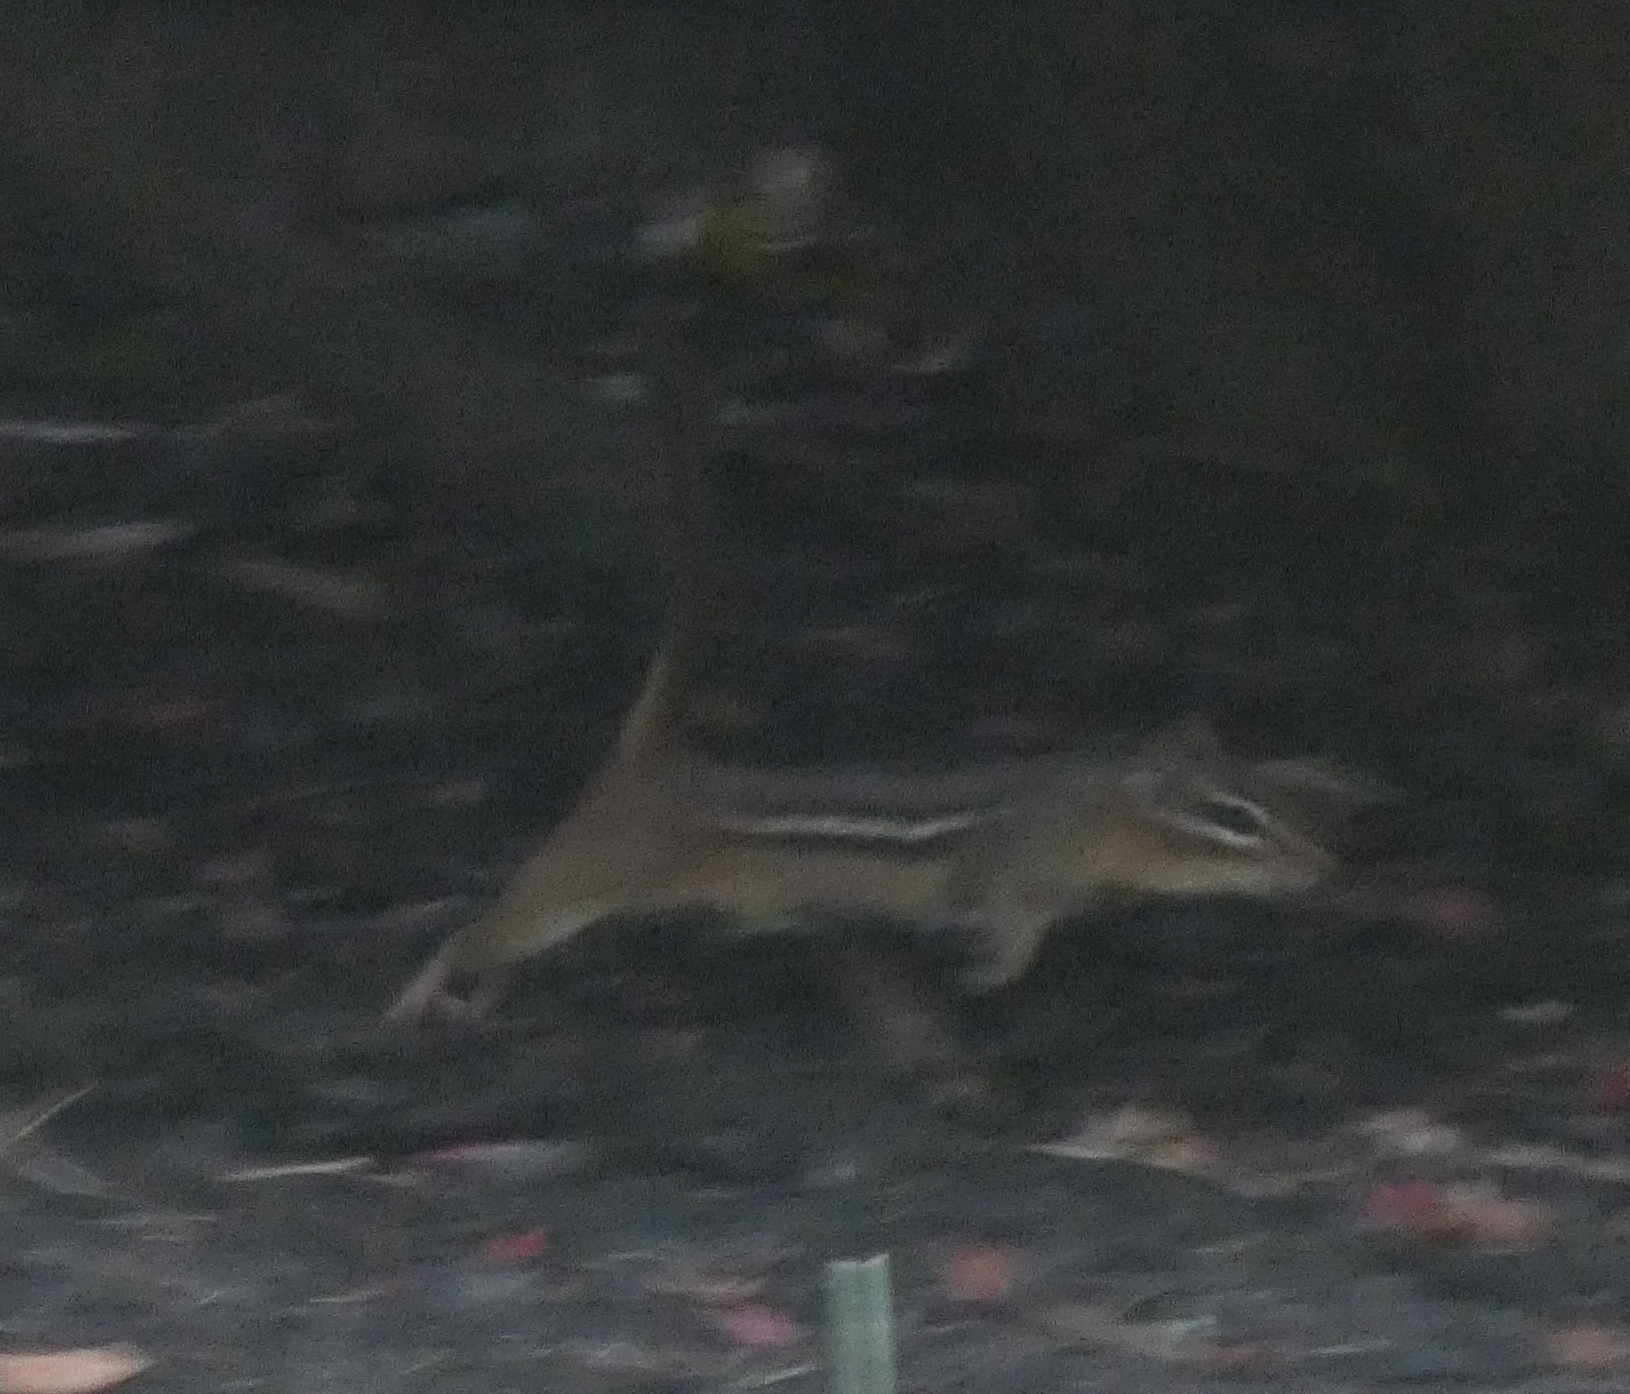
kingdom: Animalia
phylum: Chordata
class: Mammalia
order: Rodentia
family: Sciuridae
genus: Tamias
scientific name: Tamias striatus
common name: Eastern chipmunk
